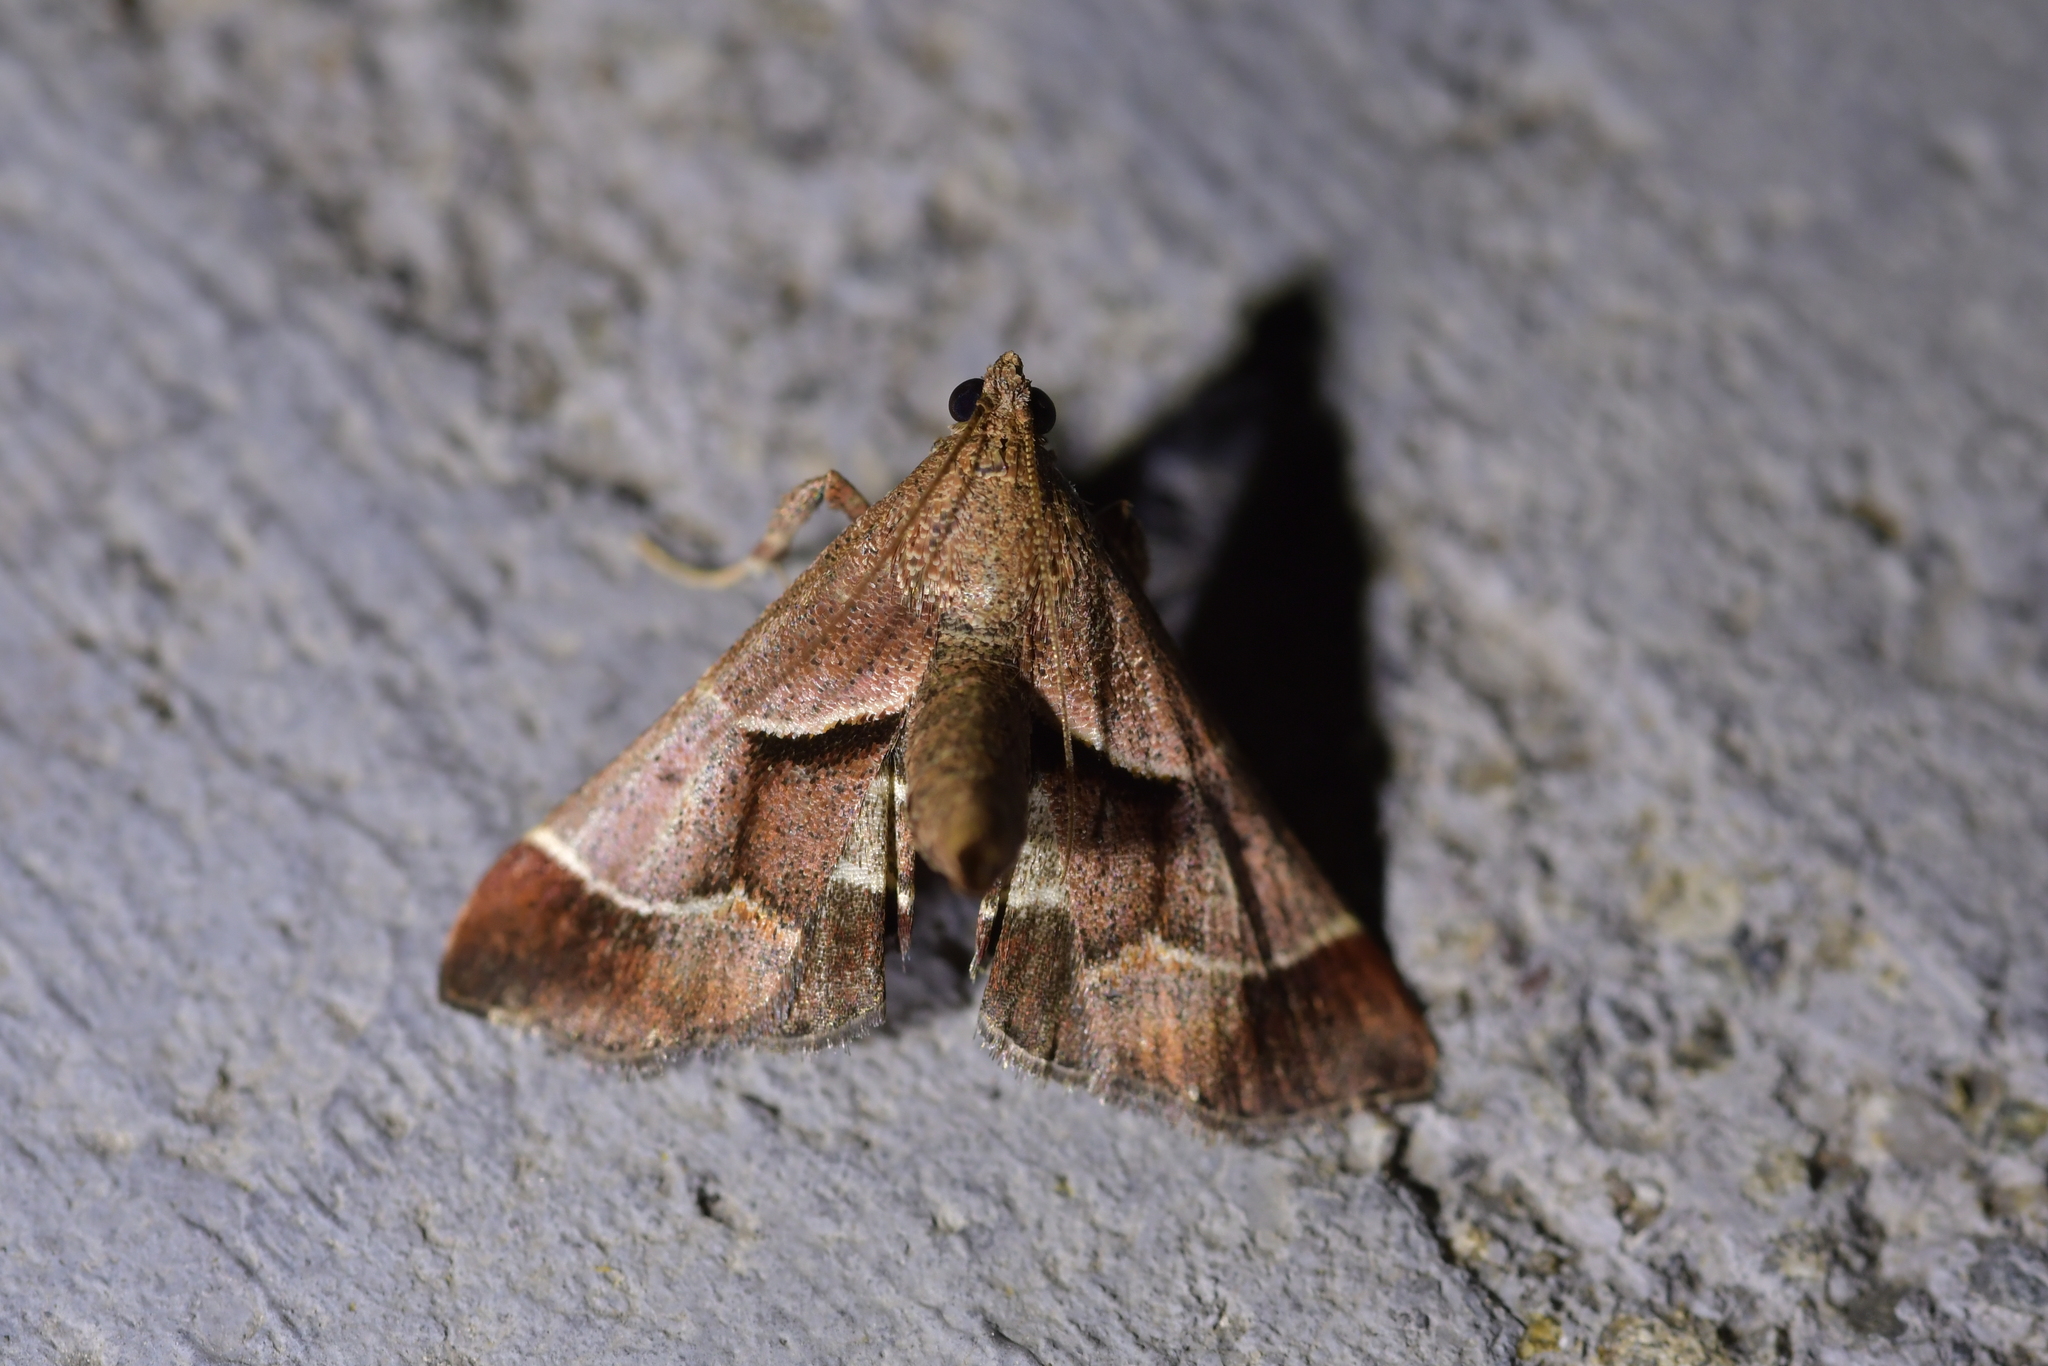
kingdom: Animalia
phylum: Arthropoda
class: Insecta
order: Lepidoptera
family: Pyralidae
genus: Gauna
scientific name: Gauna aegusalis
